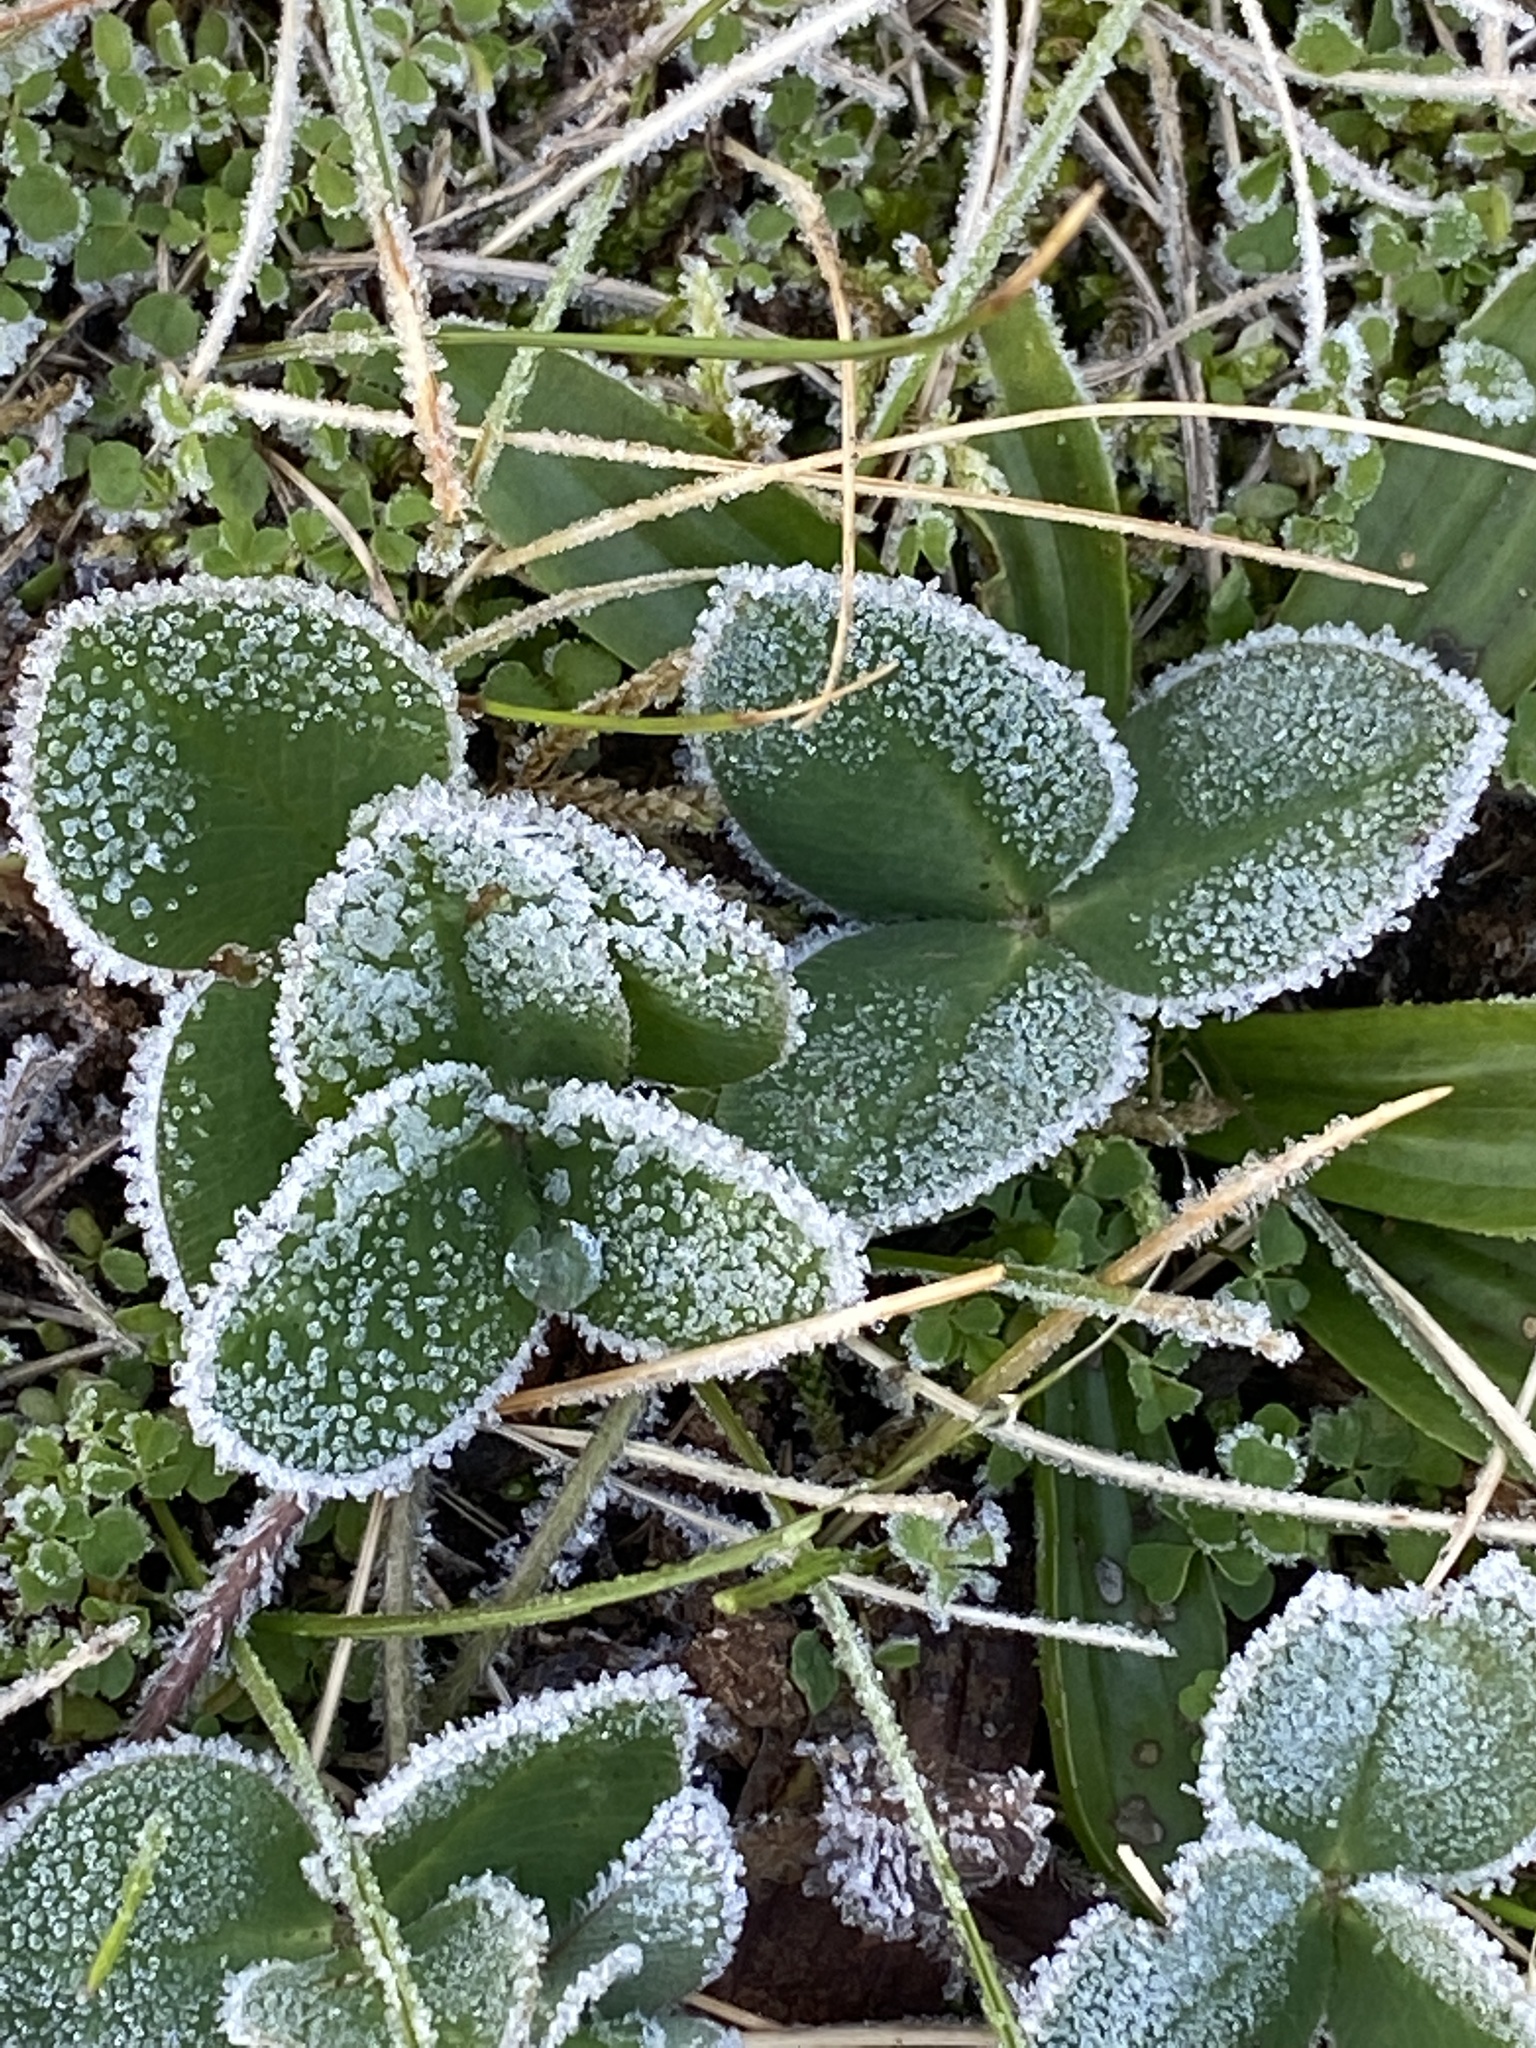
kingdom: Plantae
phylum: Tracheophyta
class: Magnoliopsida
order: Fabales
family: Fabaceae
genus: Trifolium
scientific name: Trifolium pratense
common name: Red clover
